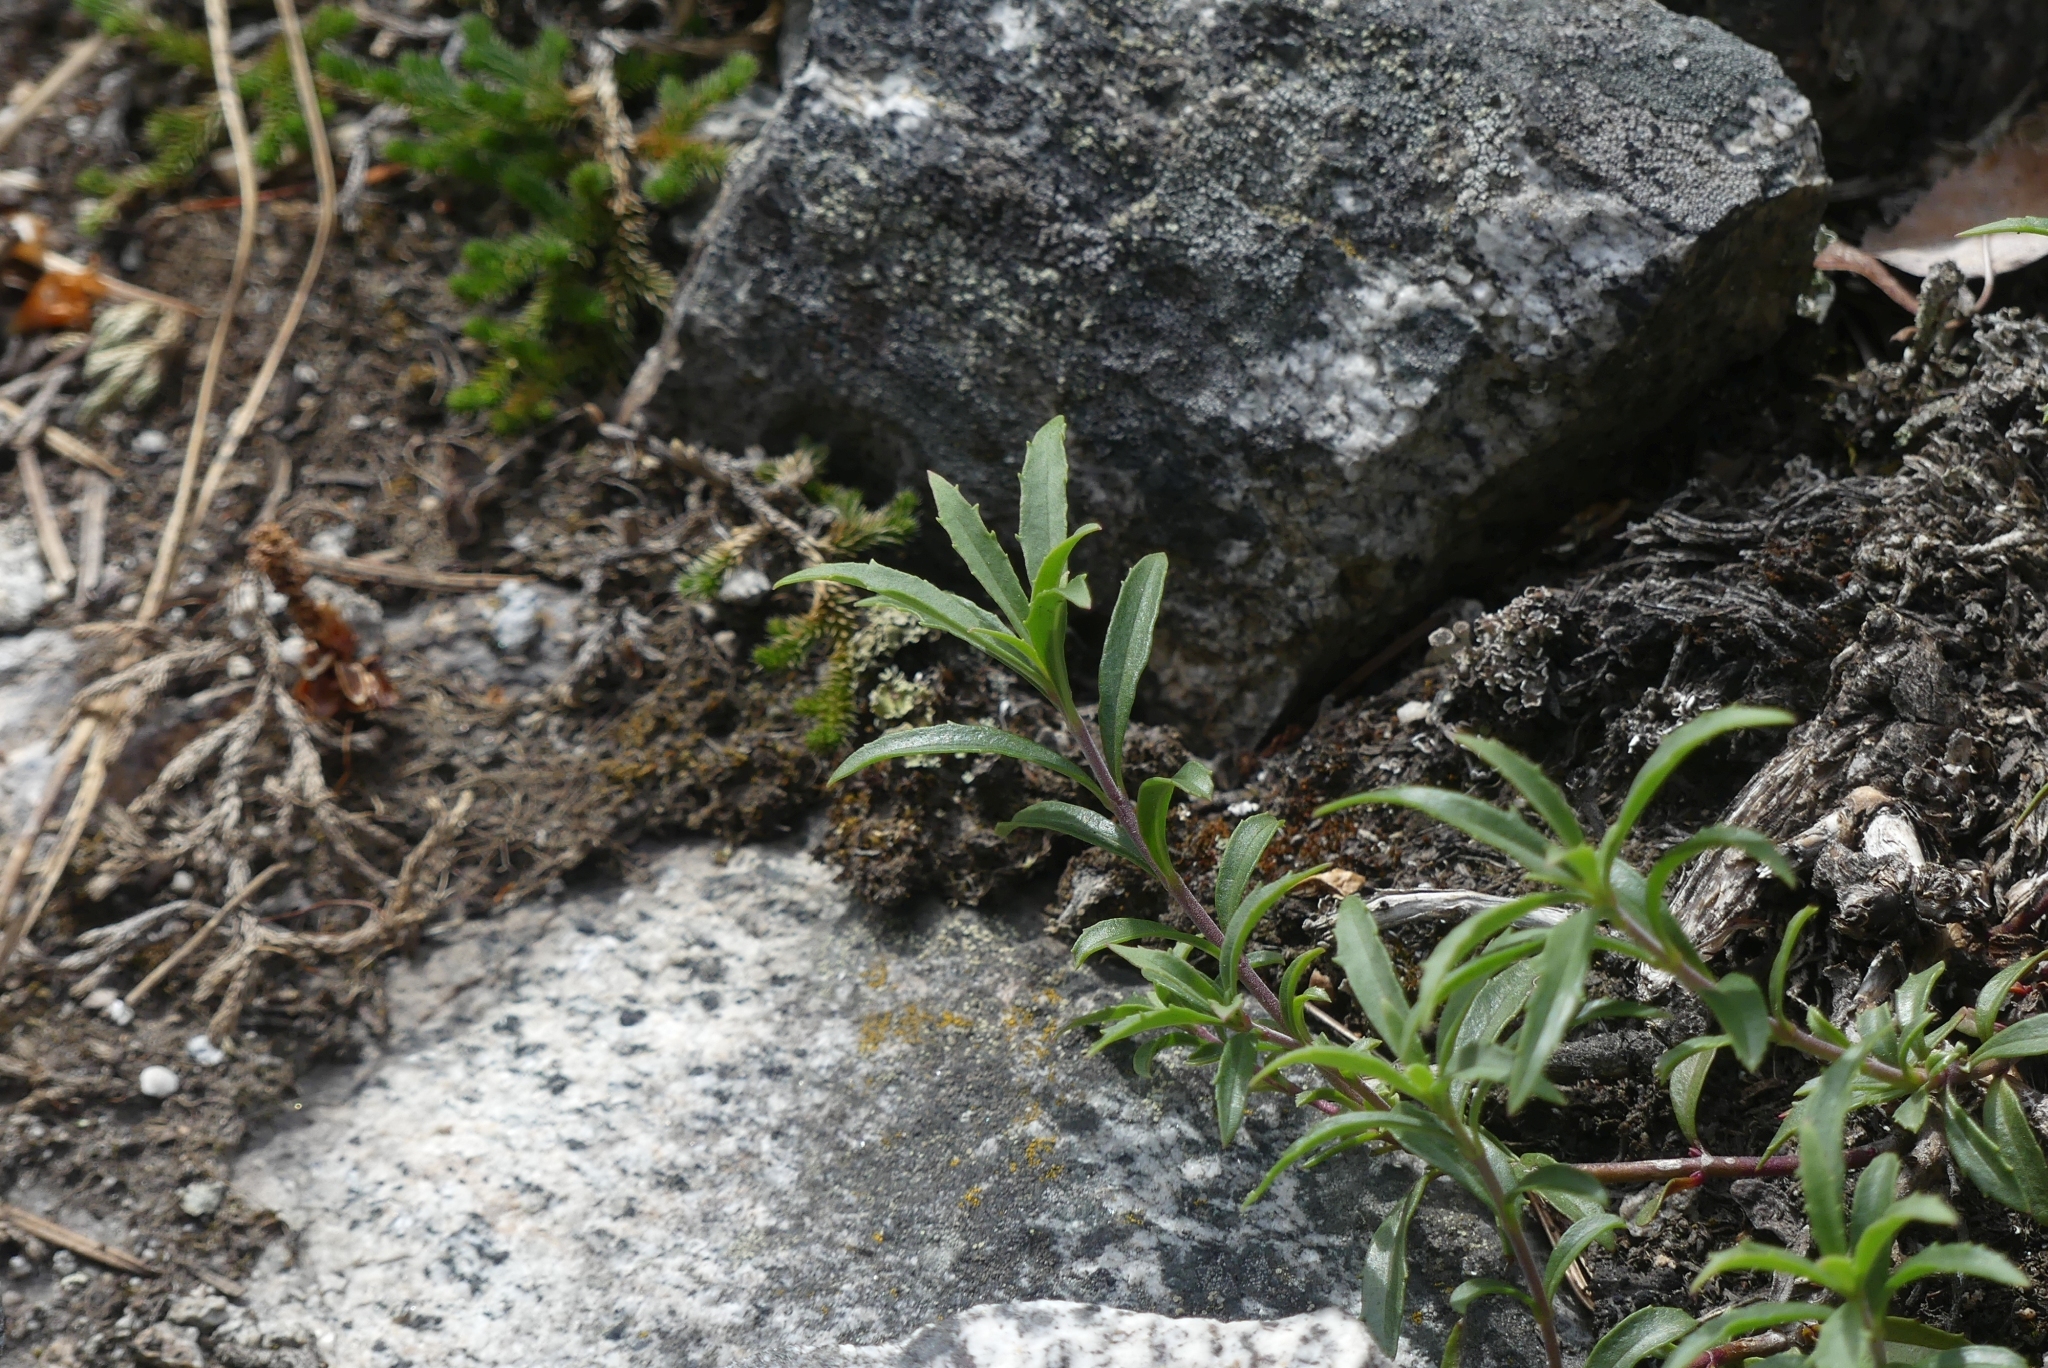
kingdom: Plantae
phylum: Tracheophyta
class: Magnoliopsida
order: Lamiales
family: Plantaginaceae
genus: Penstemon
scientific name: Penstemon fruticosus
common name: Bush penstemon
